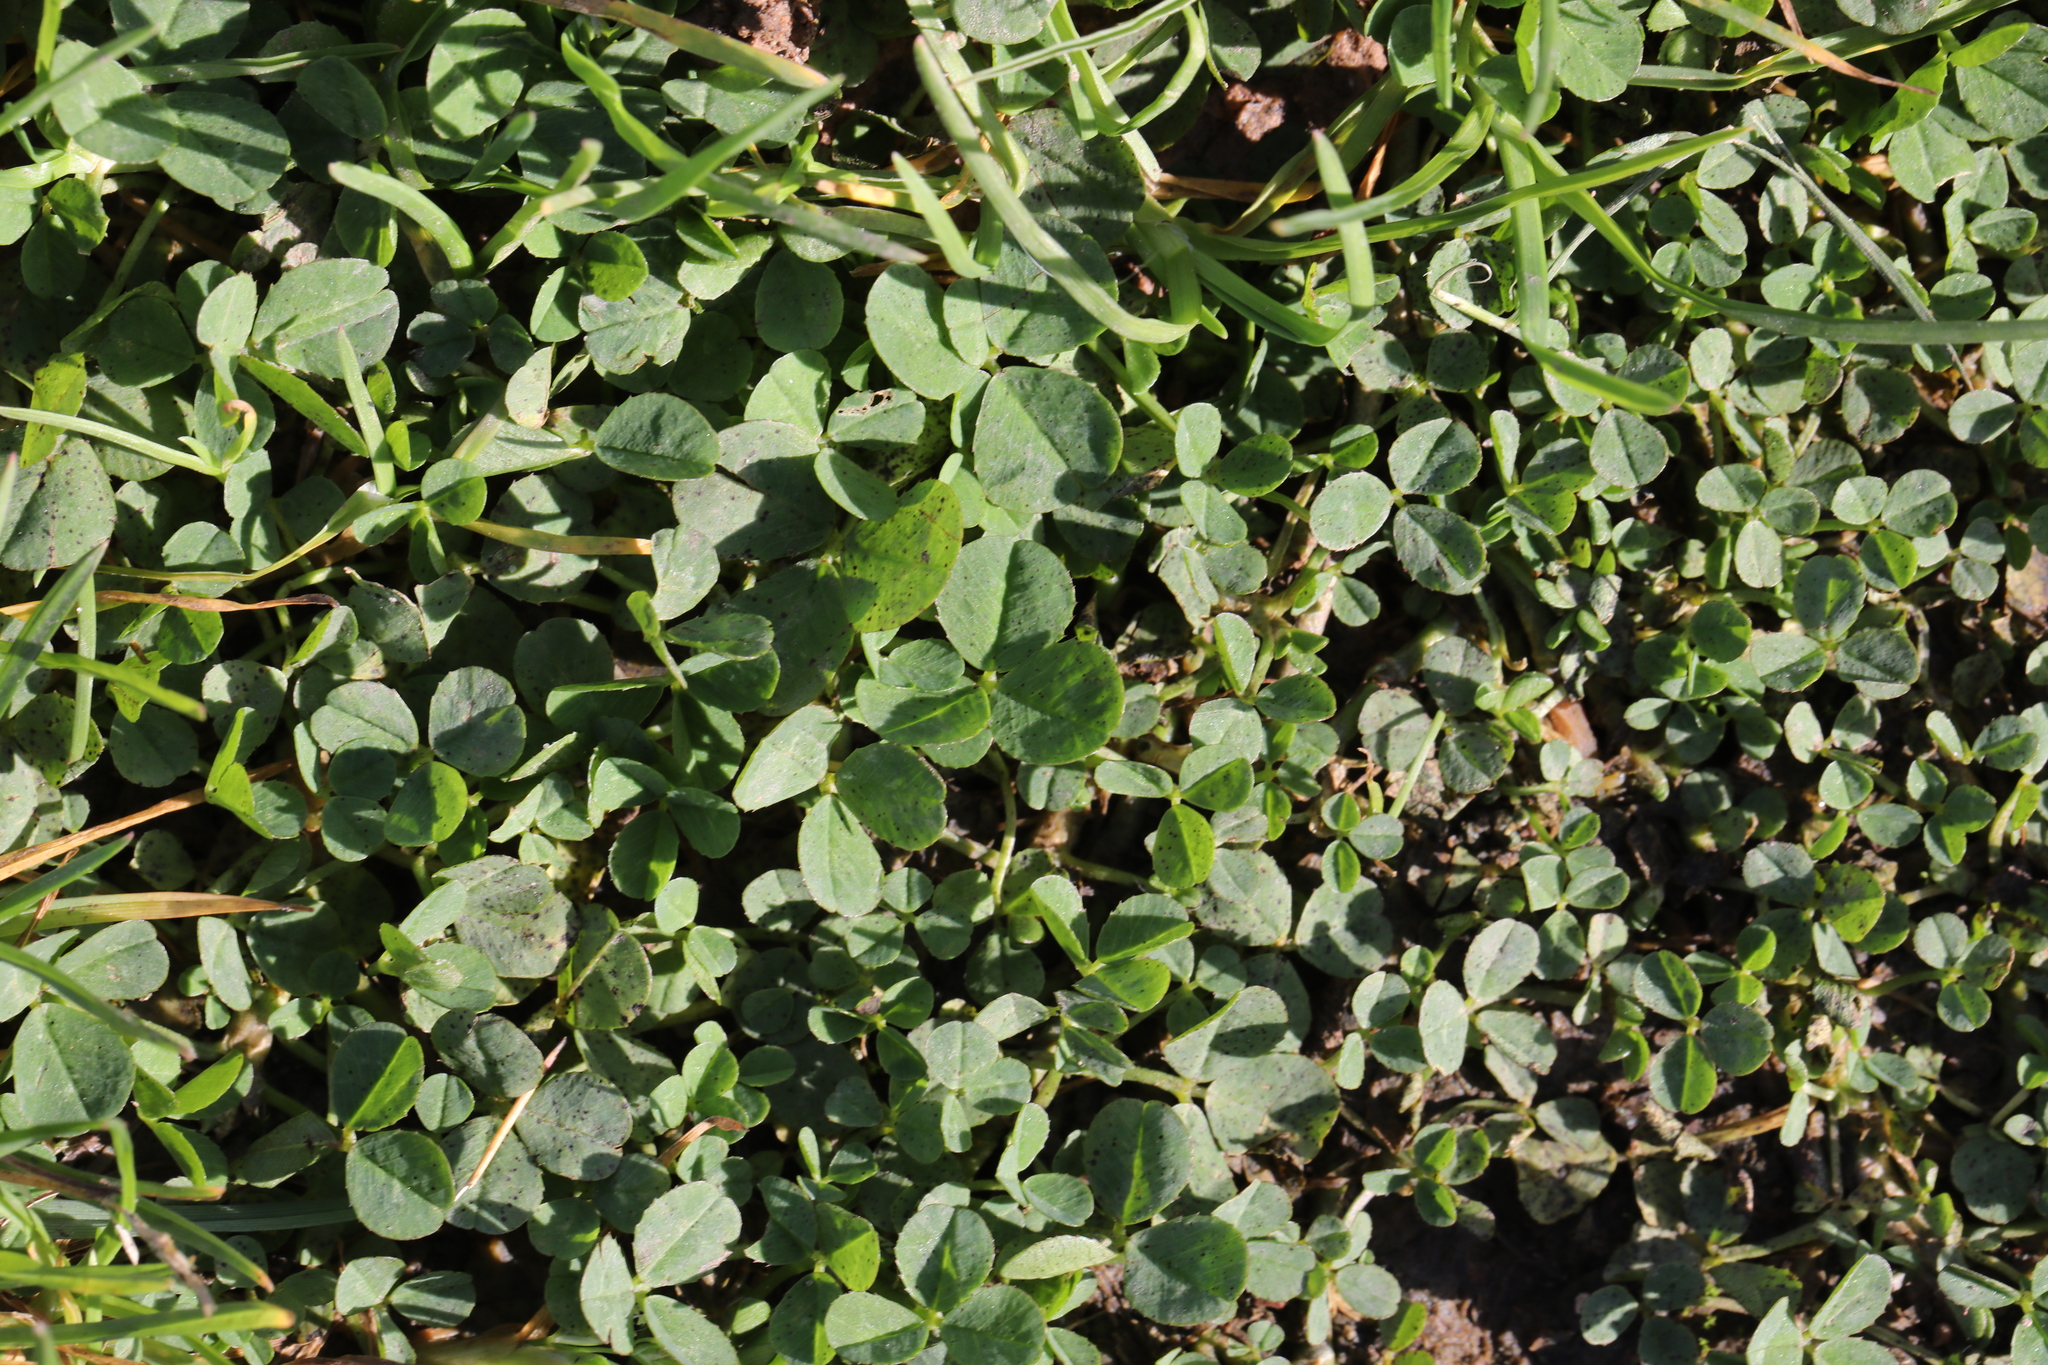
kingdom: Plantae
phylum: Tracheophyta
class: Magnoliopsida
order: Fabales
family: Fabaceae
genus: Trifolium
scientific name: Trifolium repens
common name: White clover
